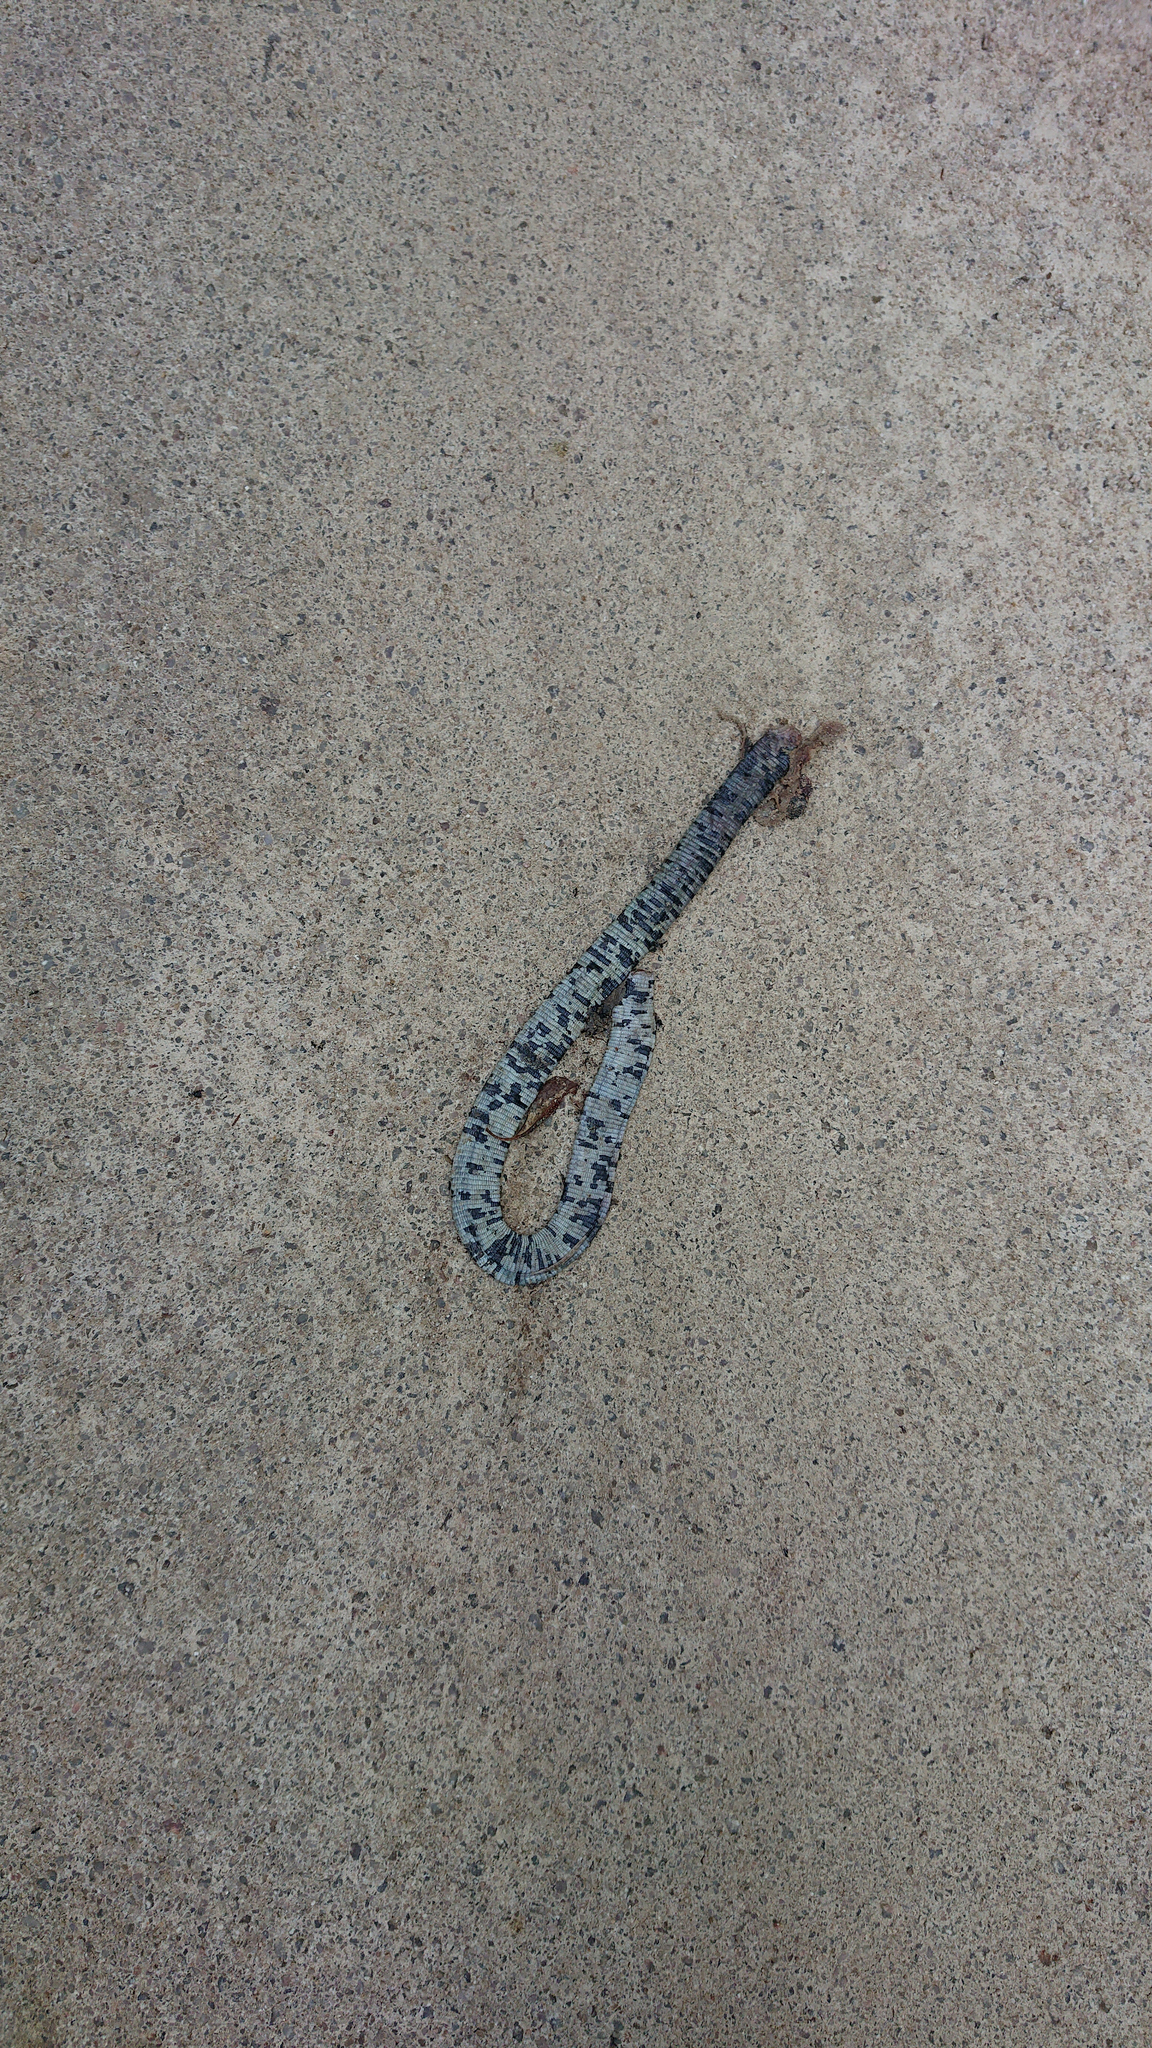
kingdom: Animalia
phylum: Chordata
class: Squamata
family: Amphisbaenidae
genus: Amphisbaena
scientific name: Amphisbaena fuliginosa
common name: Speckled worm lizard
